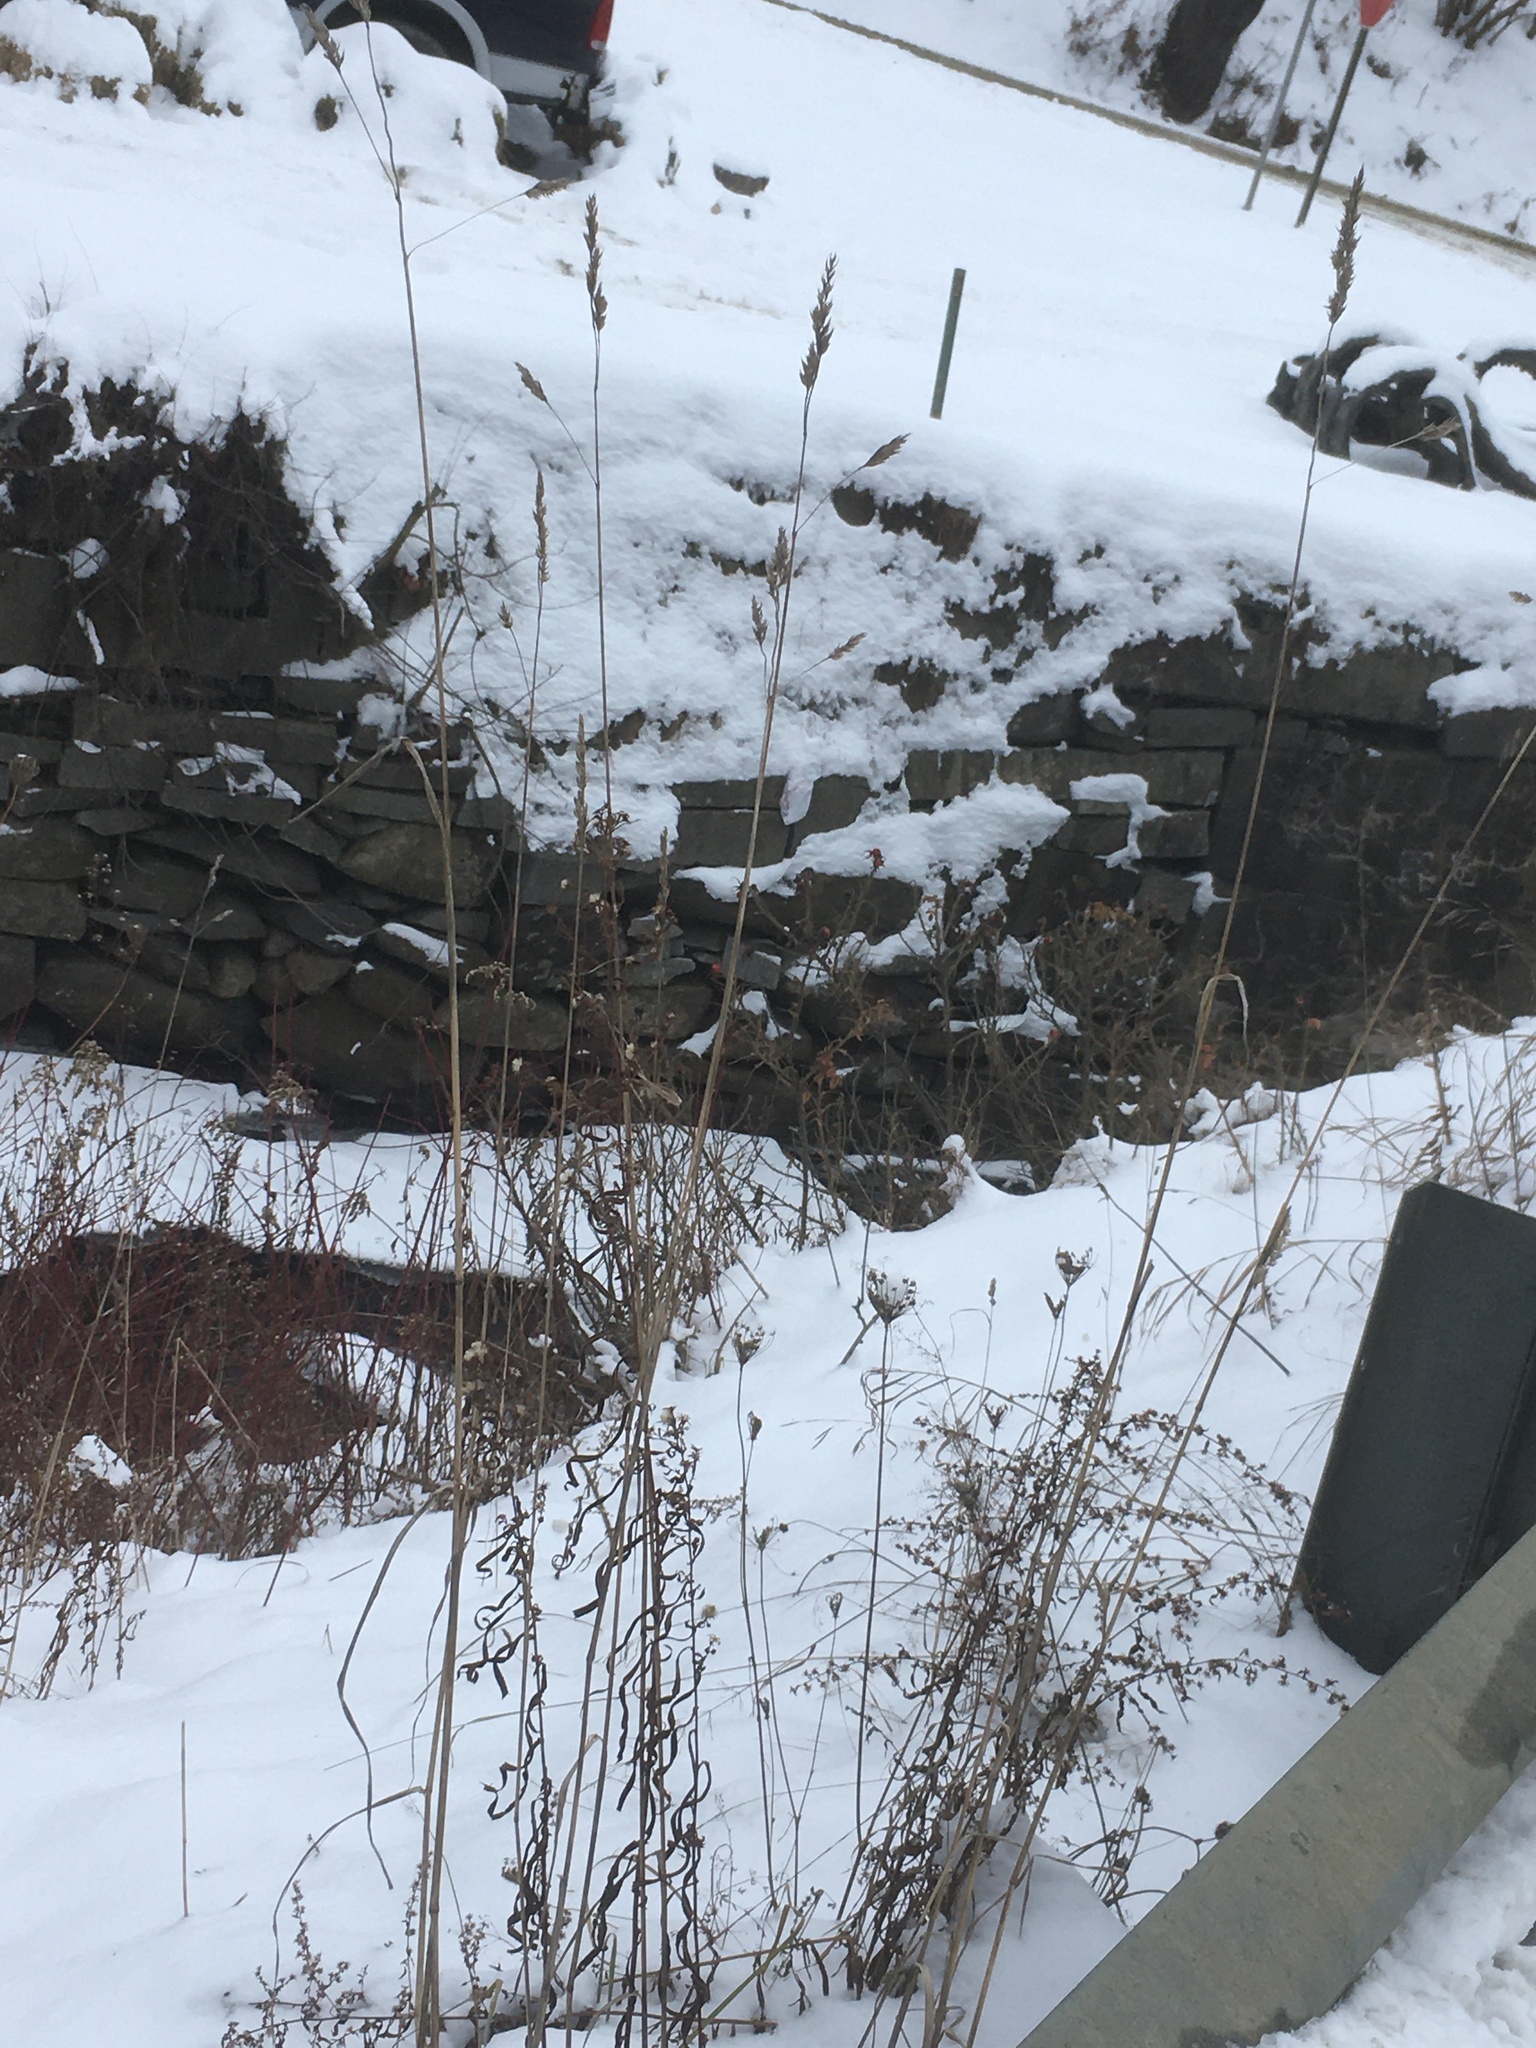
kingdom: Plantae
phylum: Tracheophyta
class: Liliopsida
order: Poales
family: Poaceae
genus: Dactylis
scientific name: Dactylis glomerata
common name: Orchardgrass
